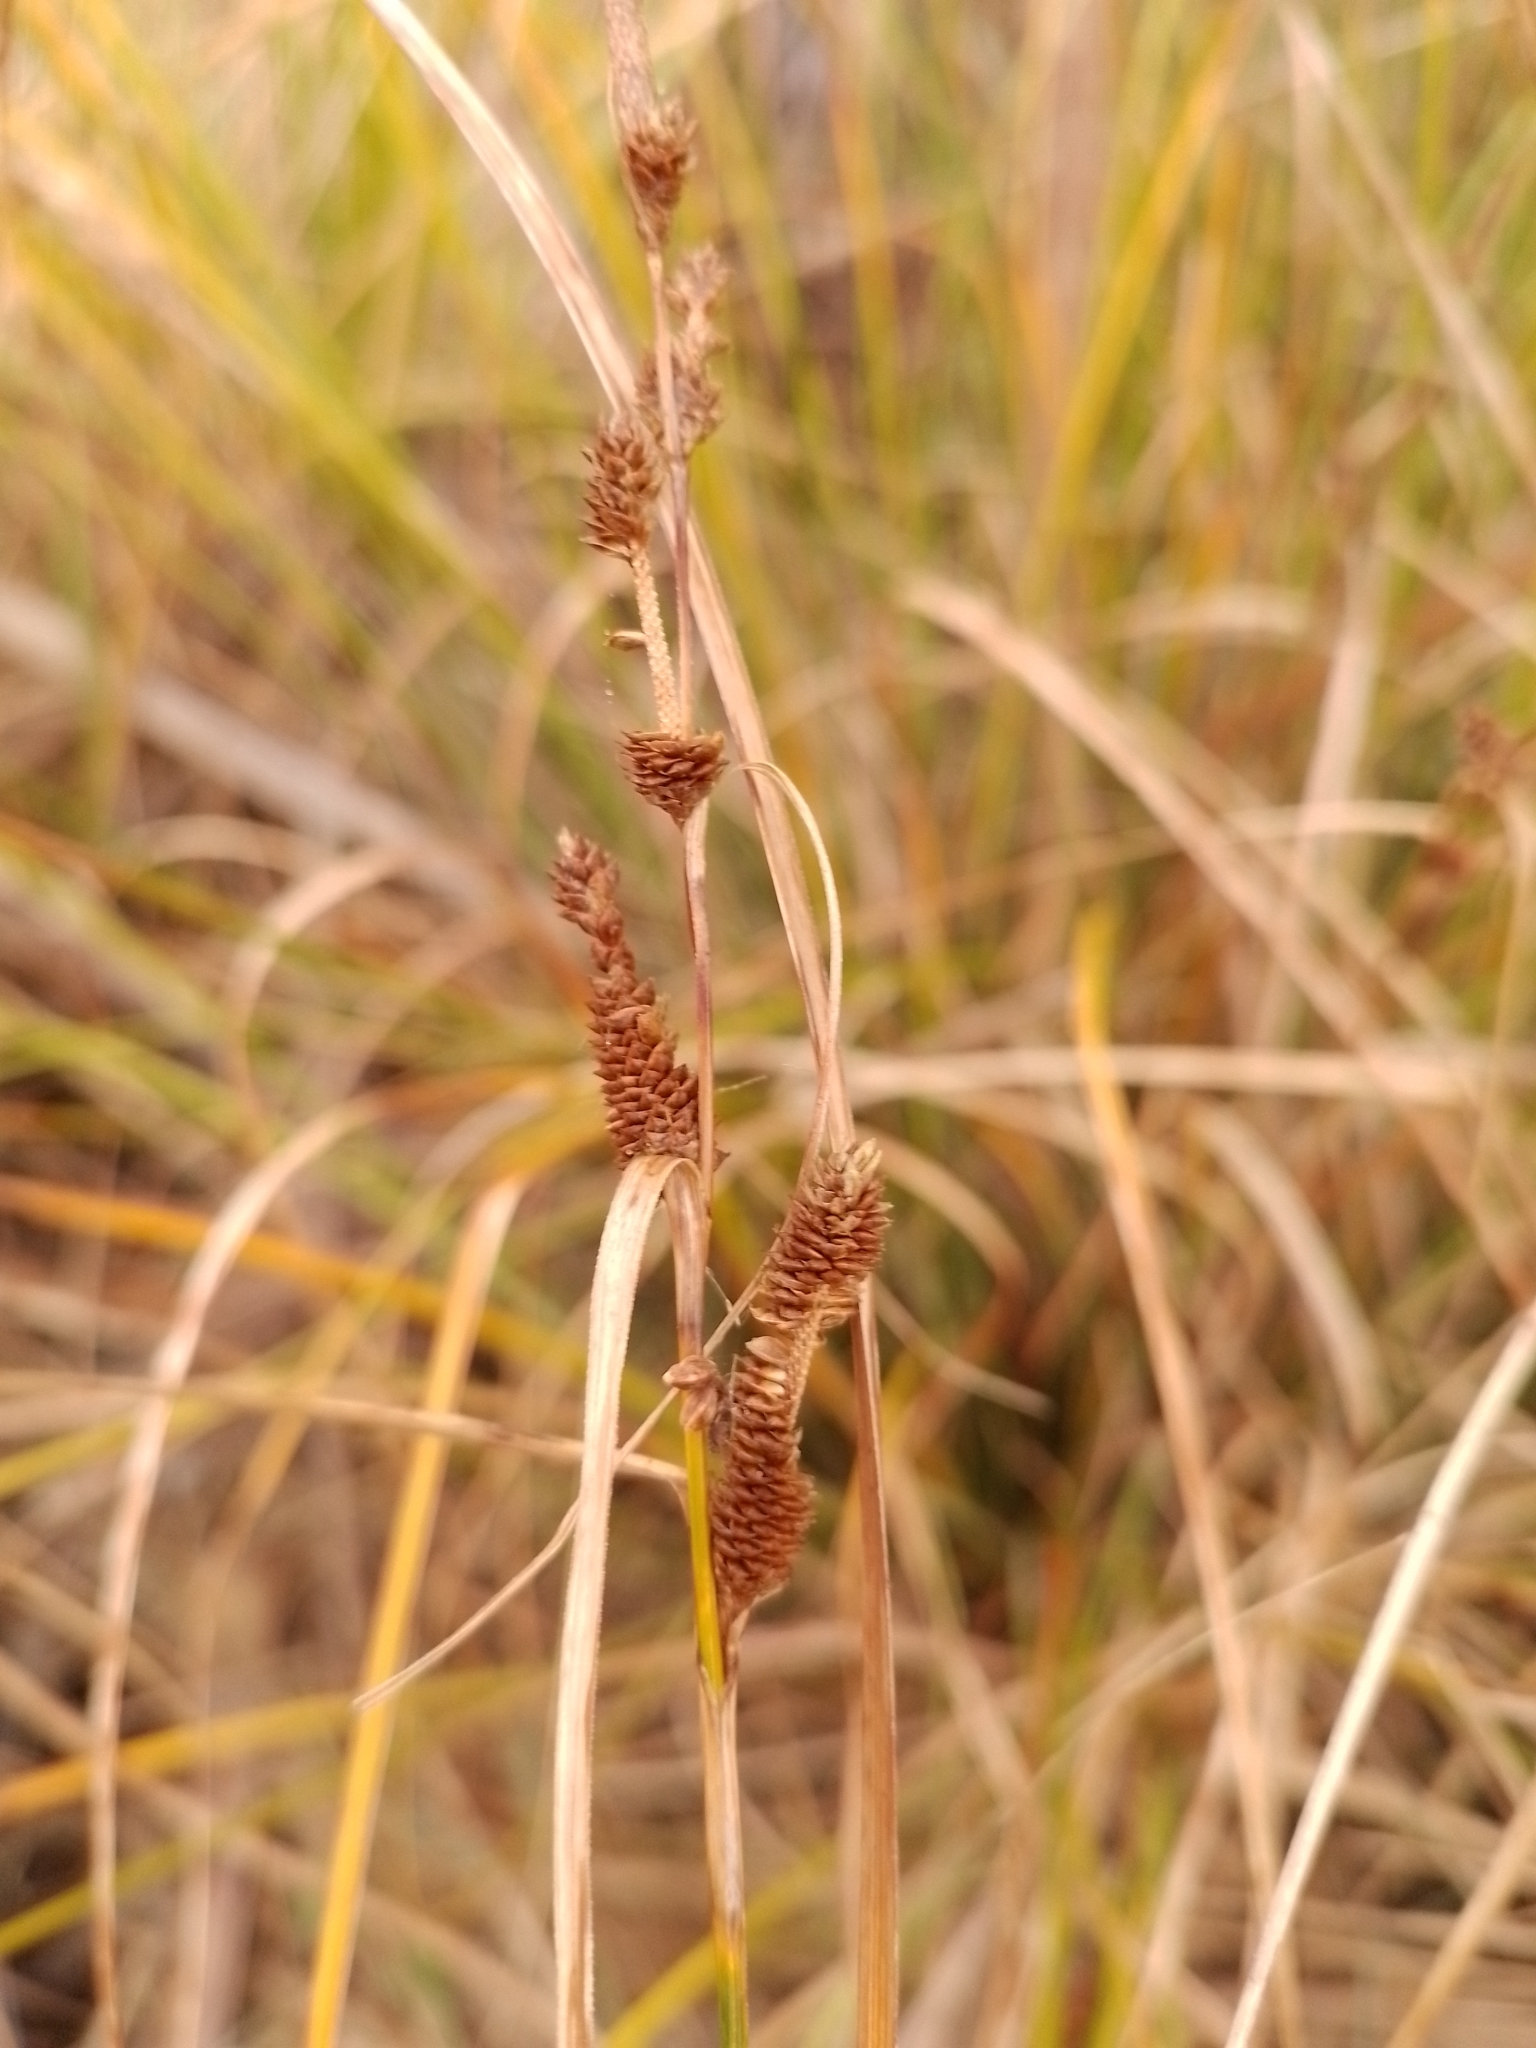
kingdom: Plantae
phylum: Tracheophyta
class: Liliopsida
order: Poales
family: Cyperaceae
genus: Carex
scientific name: Carex dipsacea
